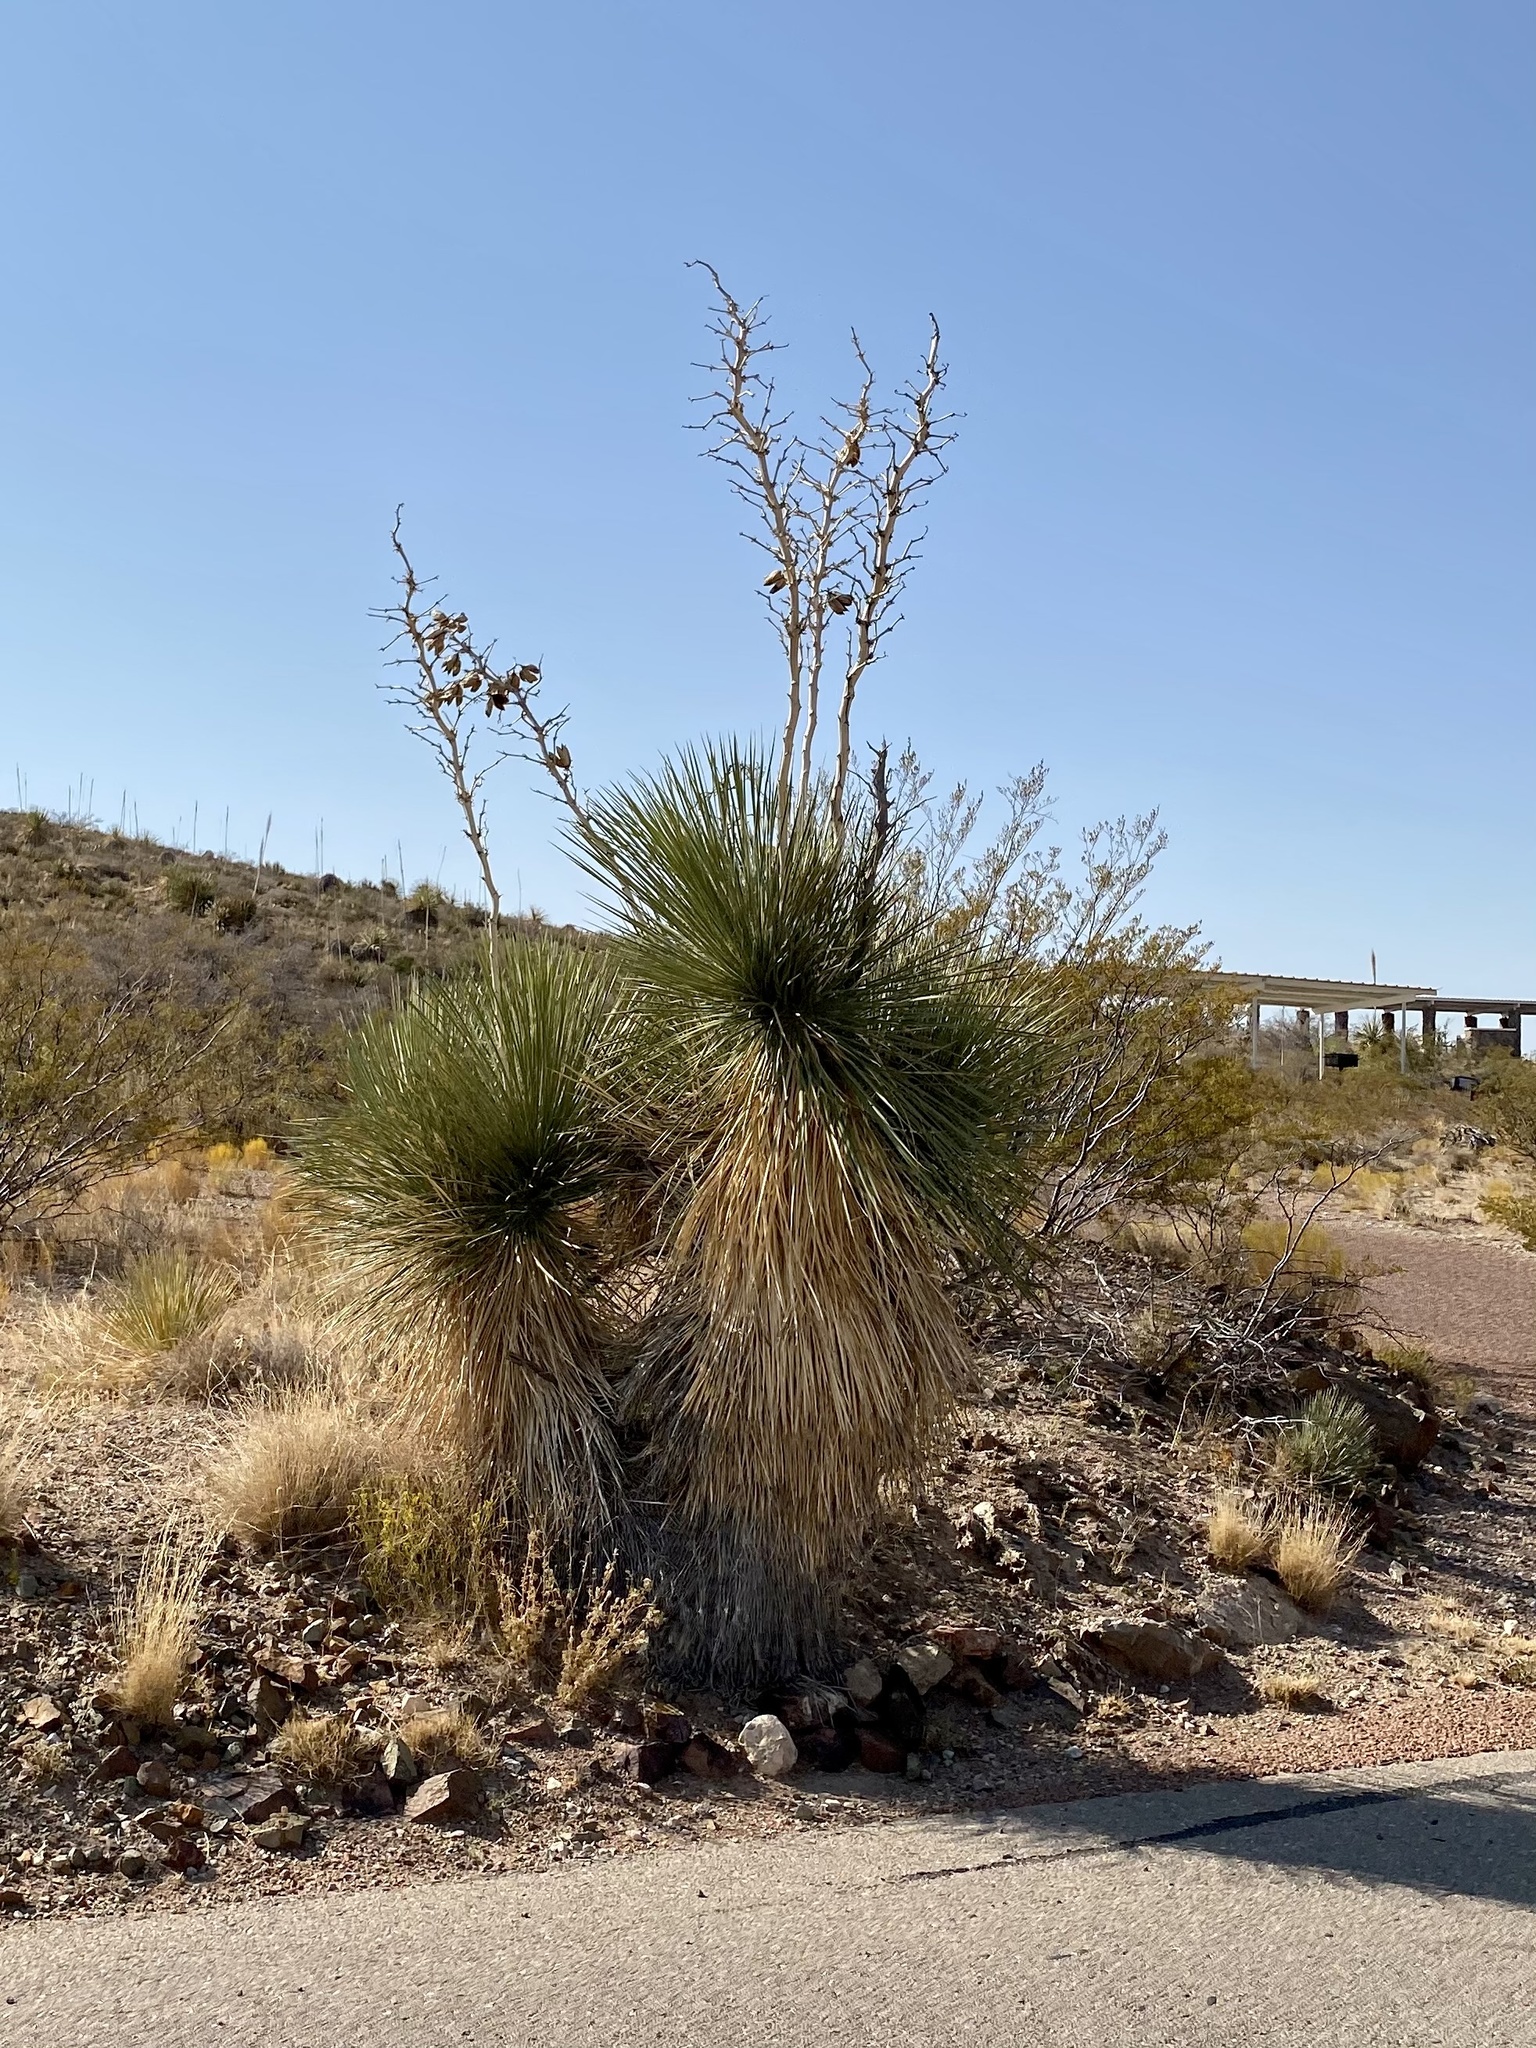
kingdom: Plantae
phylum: Tracheophyta
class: Liliopsida
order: Asparagales
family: Asparagaceae
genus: Yucca
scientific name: Yucca elata
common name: Palmella
